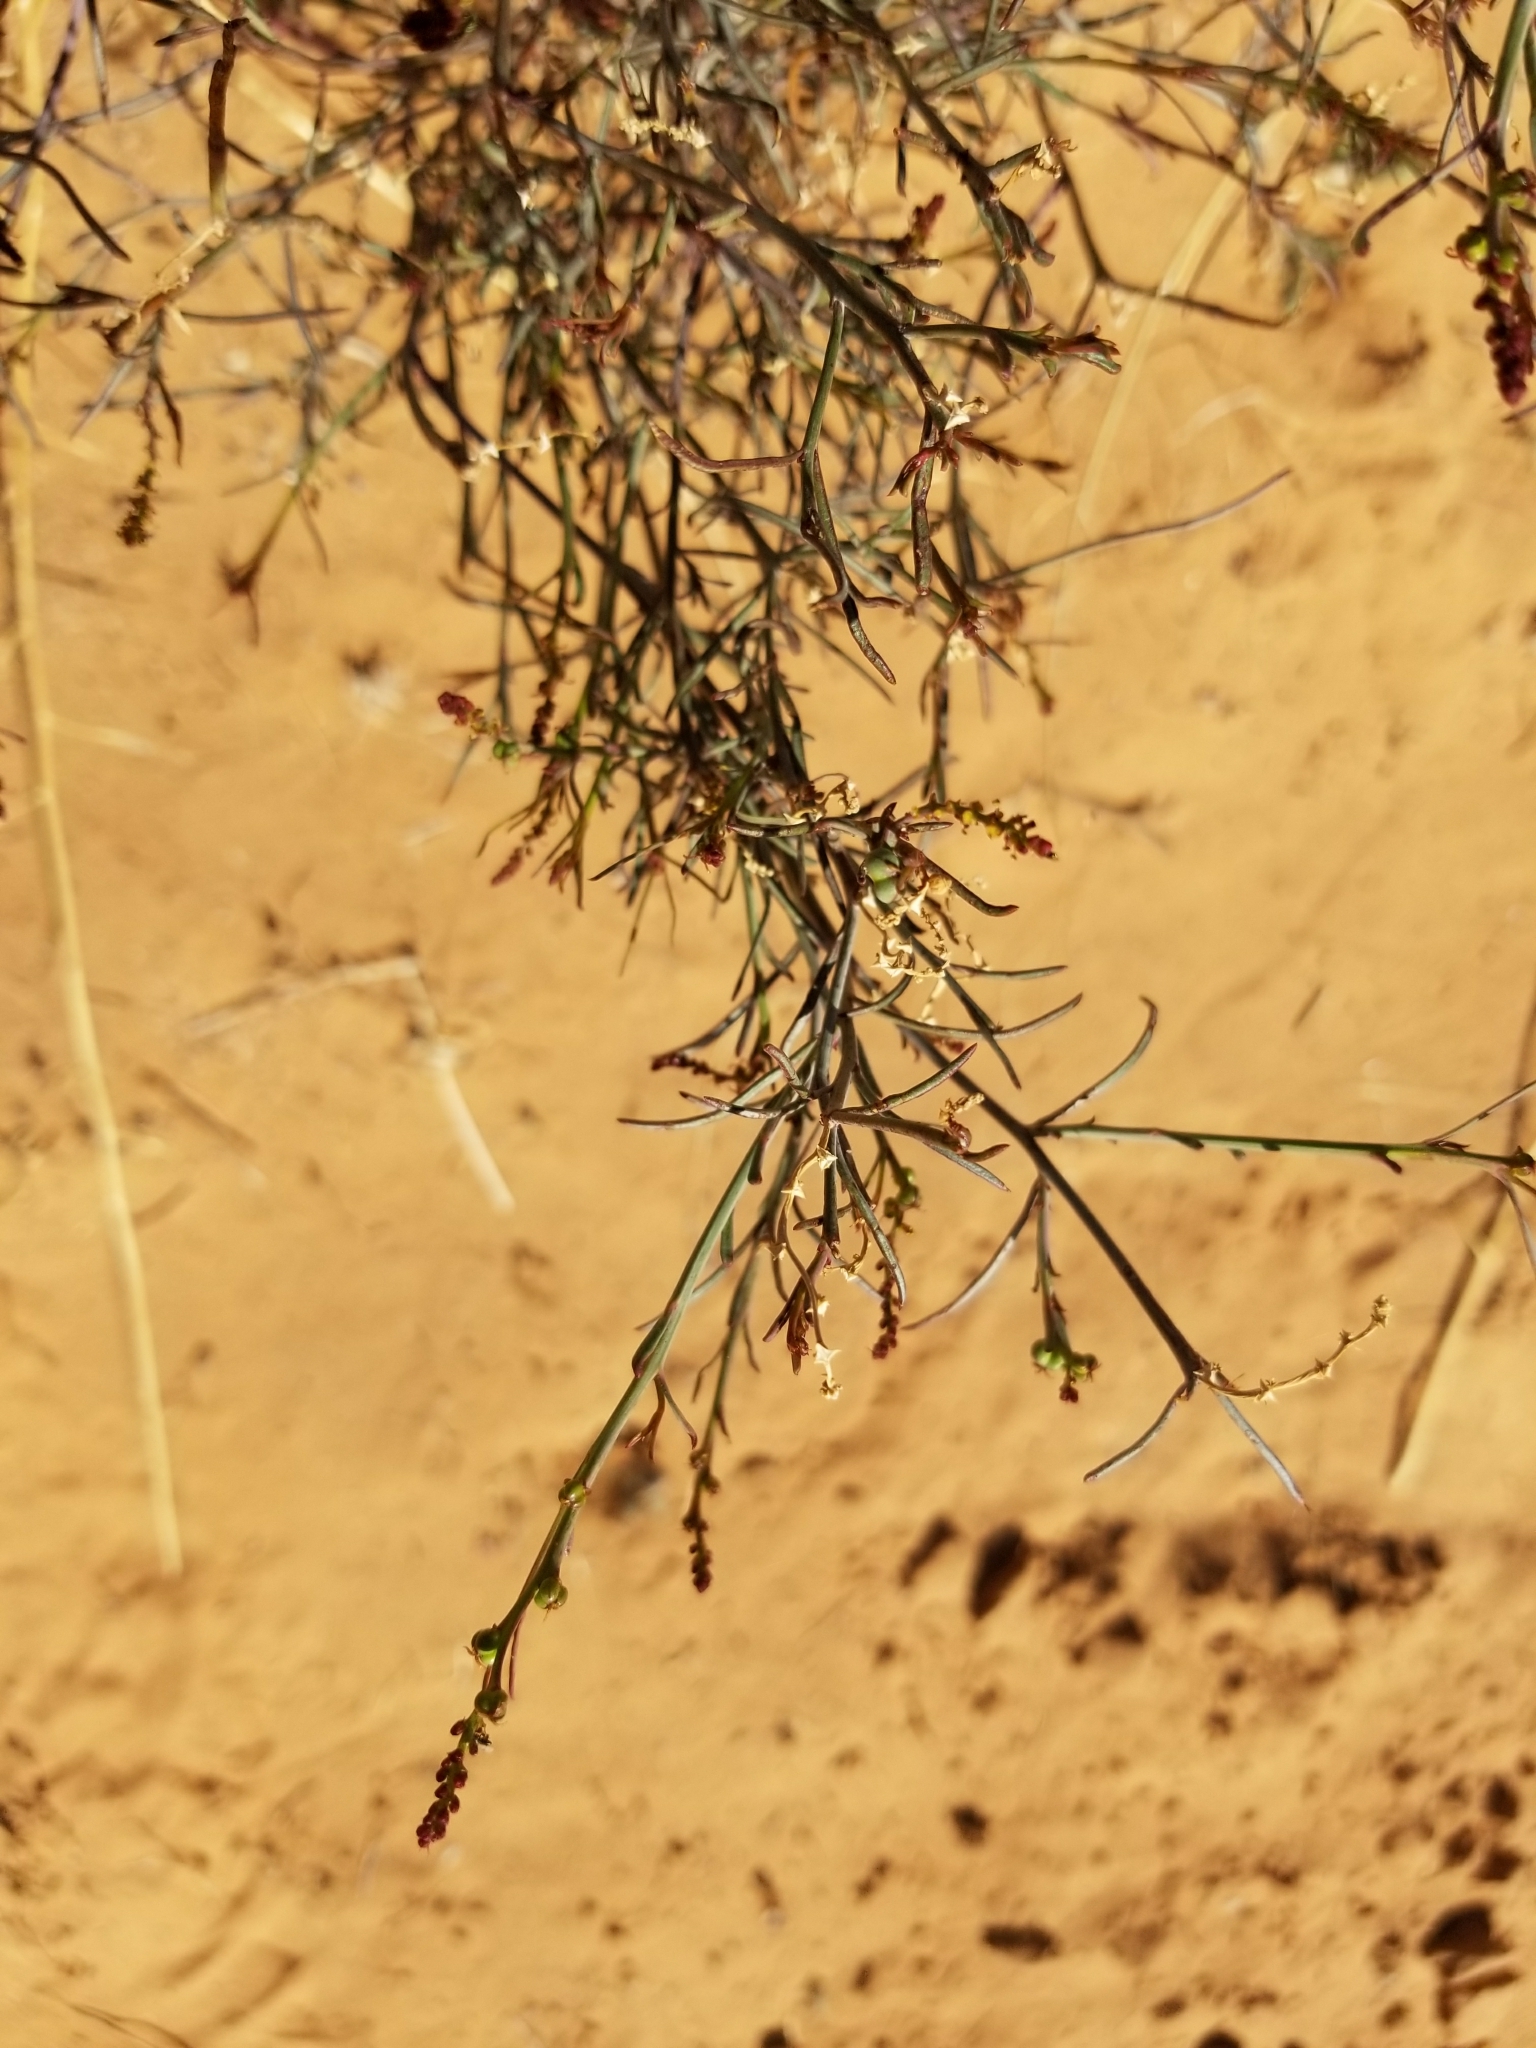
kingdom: Plantae
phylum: Tracheophyta
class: Magnoliopsida
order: Malpighiales
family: Euphorbiaceae
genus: Stillingia
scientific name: Stillingia linearifolia
